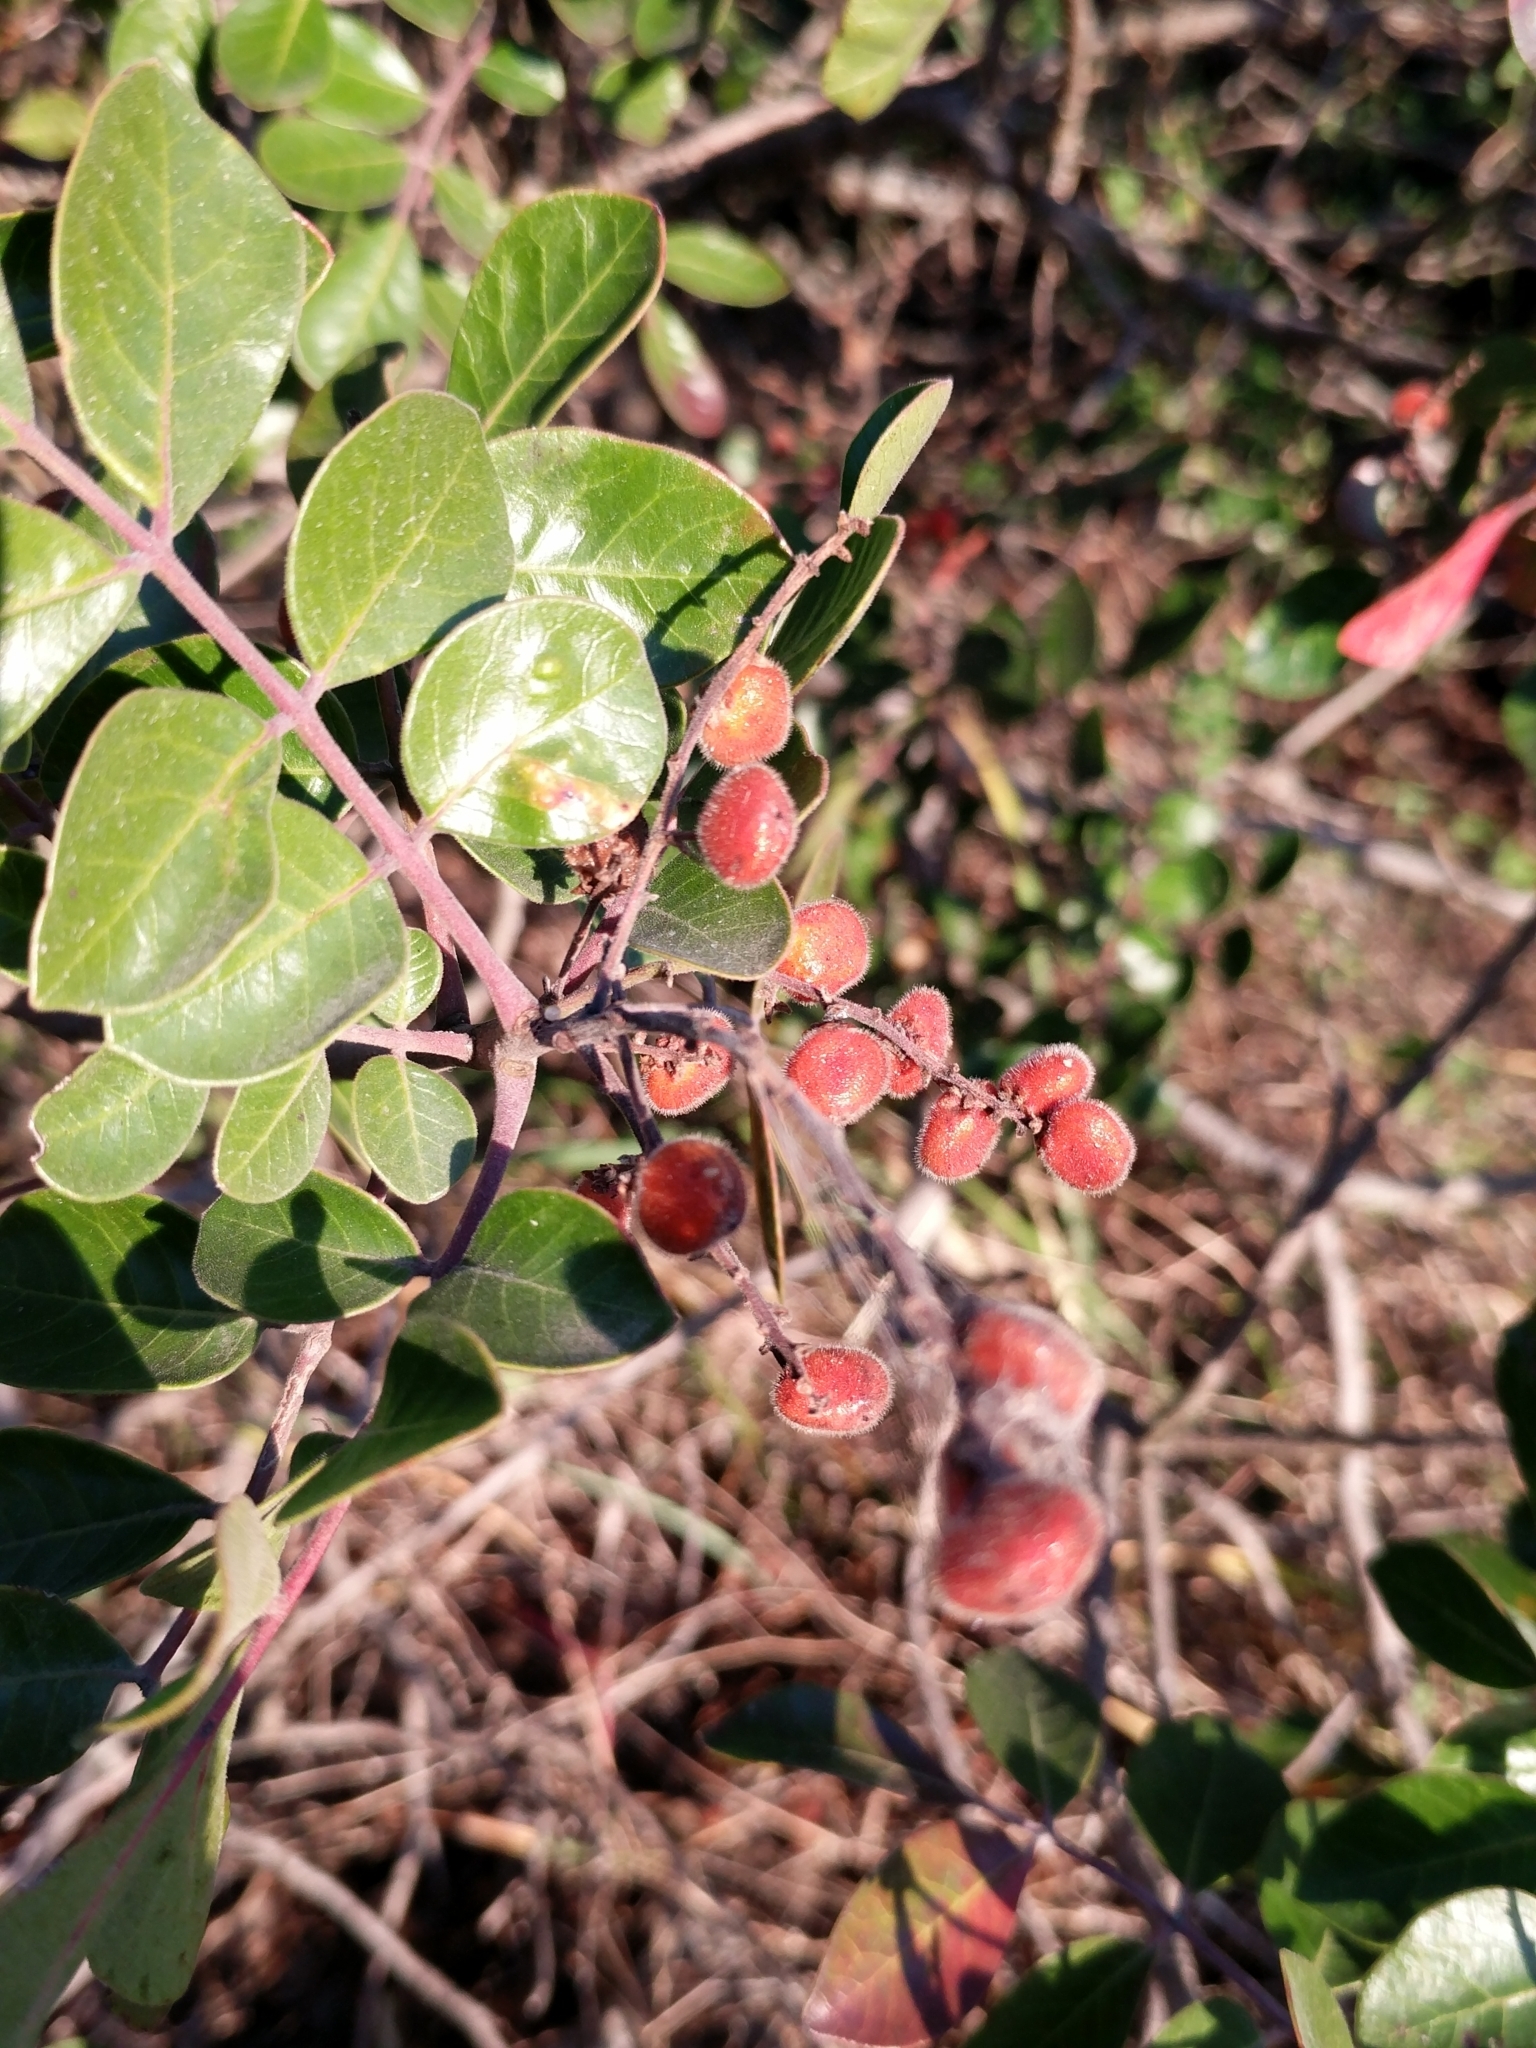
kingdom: Plantae
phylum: Tracheophyta
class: Magnoliopsida
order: Sapindales
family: Anacardiaceae
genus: Rhus
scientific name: Rhus virens
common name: Evergreen sumac
